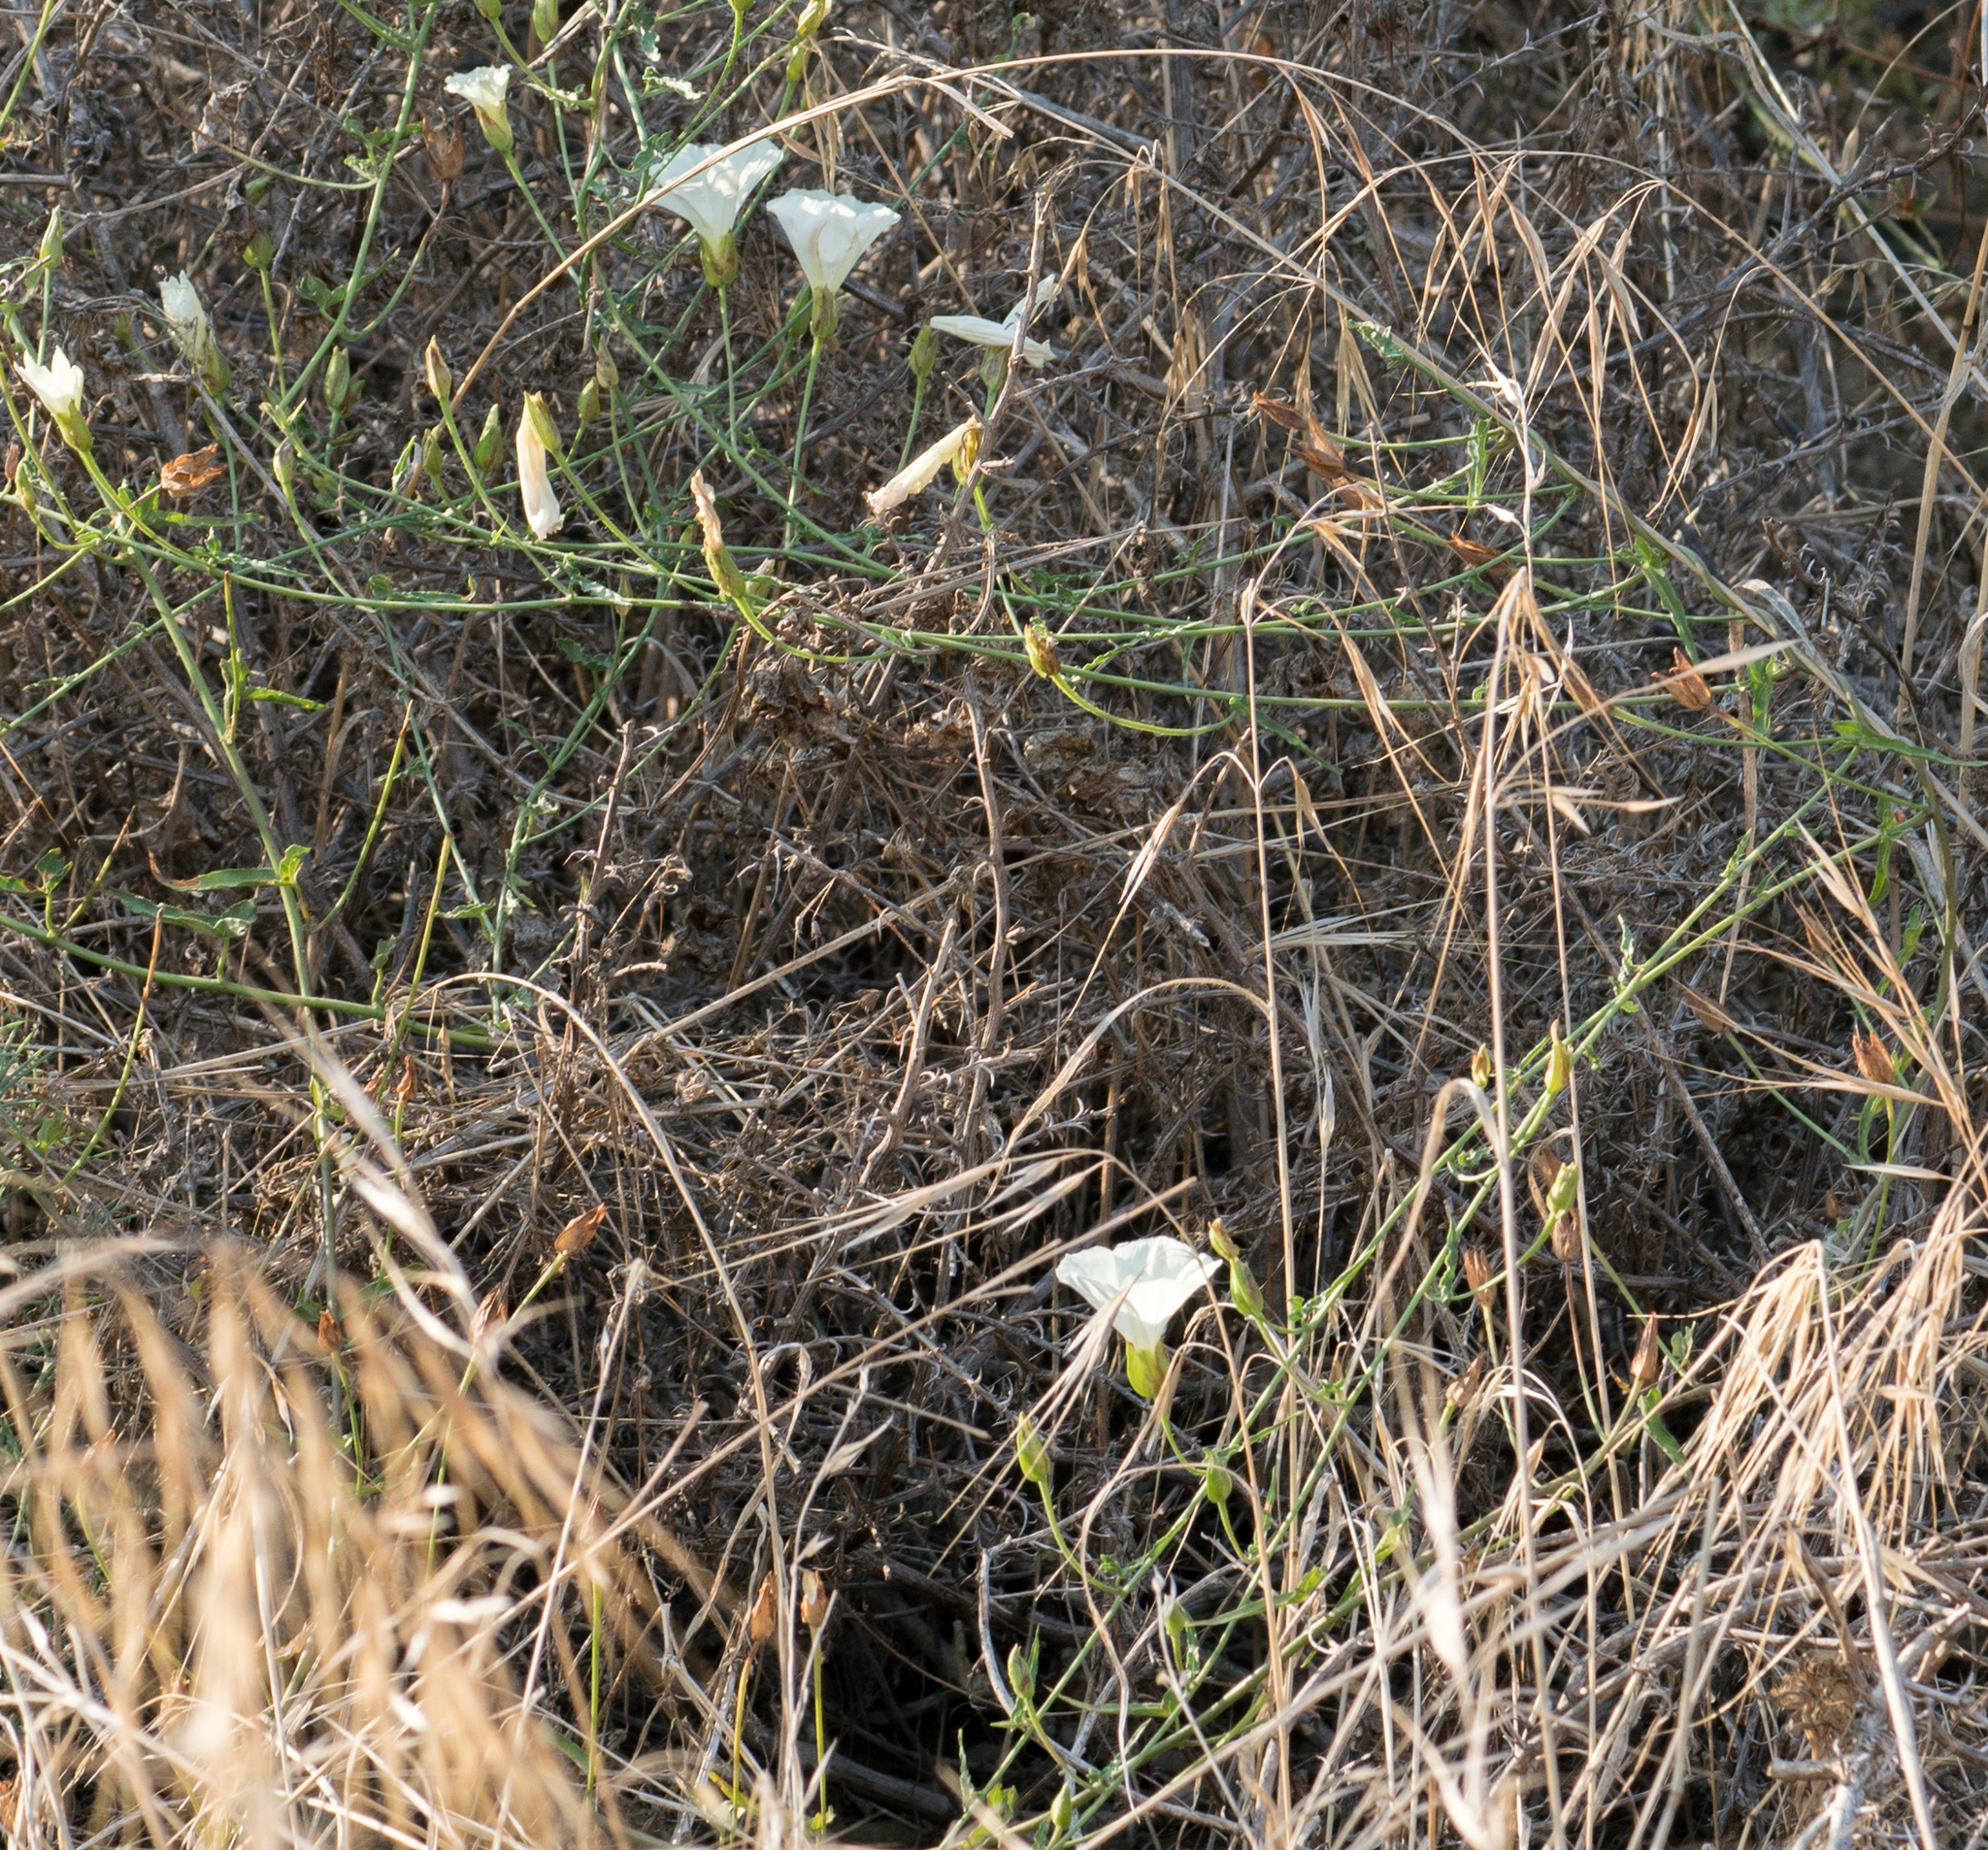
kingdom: Plantae
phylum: Tracheophyta
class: Magnoliopsida
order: Solanales
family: Convolvulaceae
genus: Calystegia
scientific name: Calystegia macrostegia
